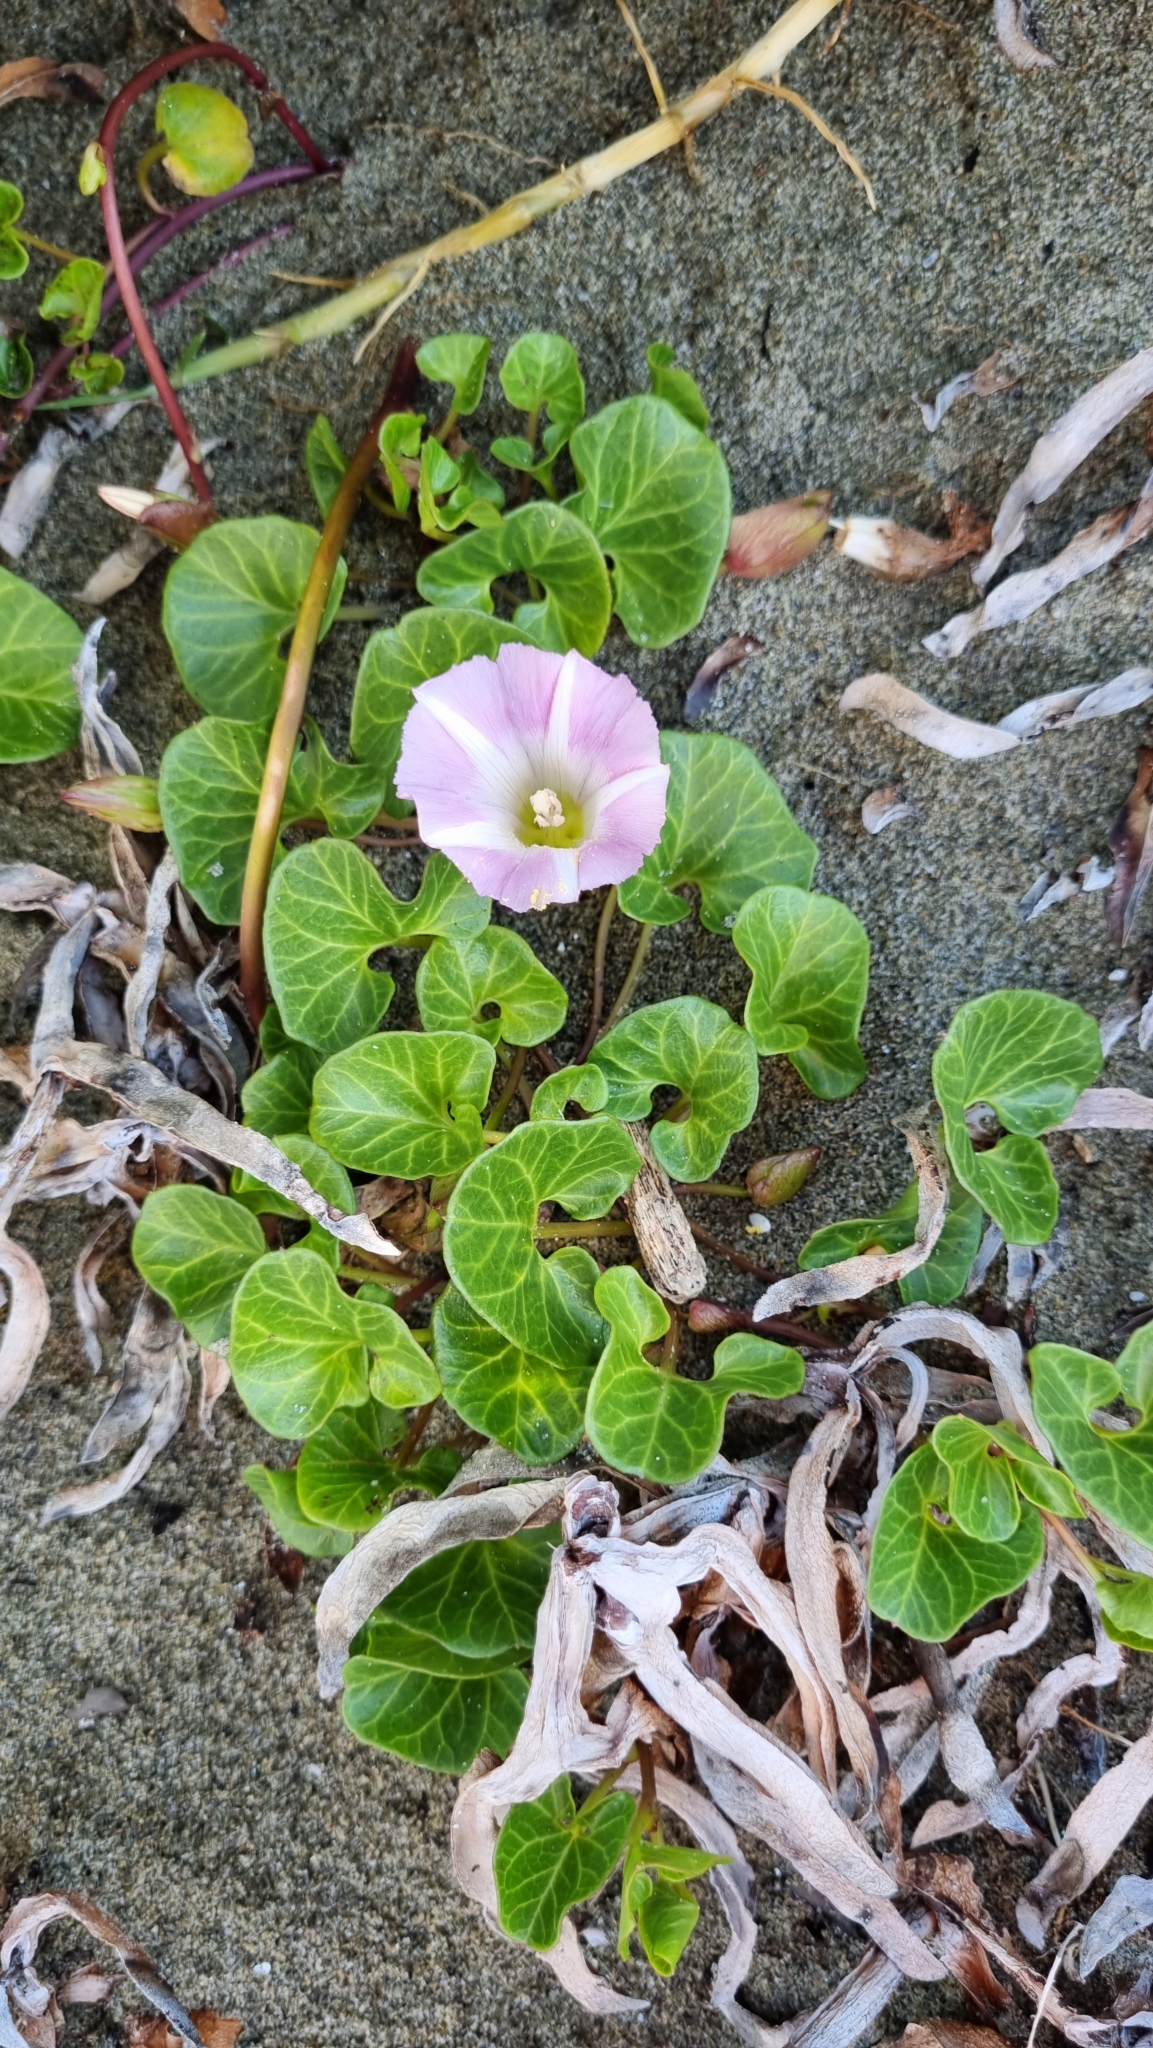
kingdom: Plantae
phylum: Tracheophyta
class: Magnoliopsida
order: Solanales
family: Convolvulaceae
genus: Calystegia
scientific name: Calystegia soldanella
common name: Sea bindweed
